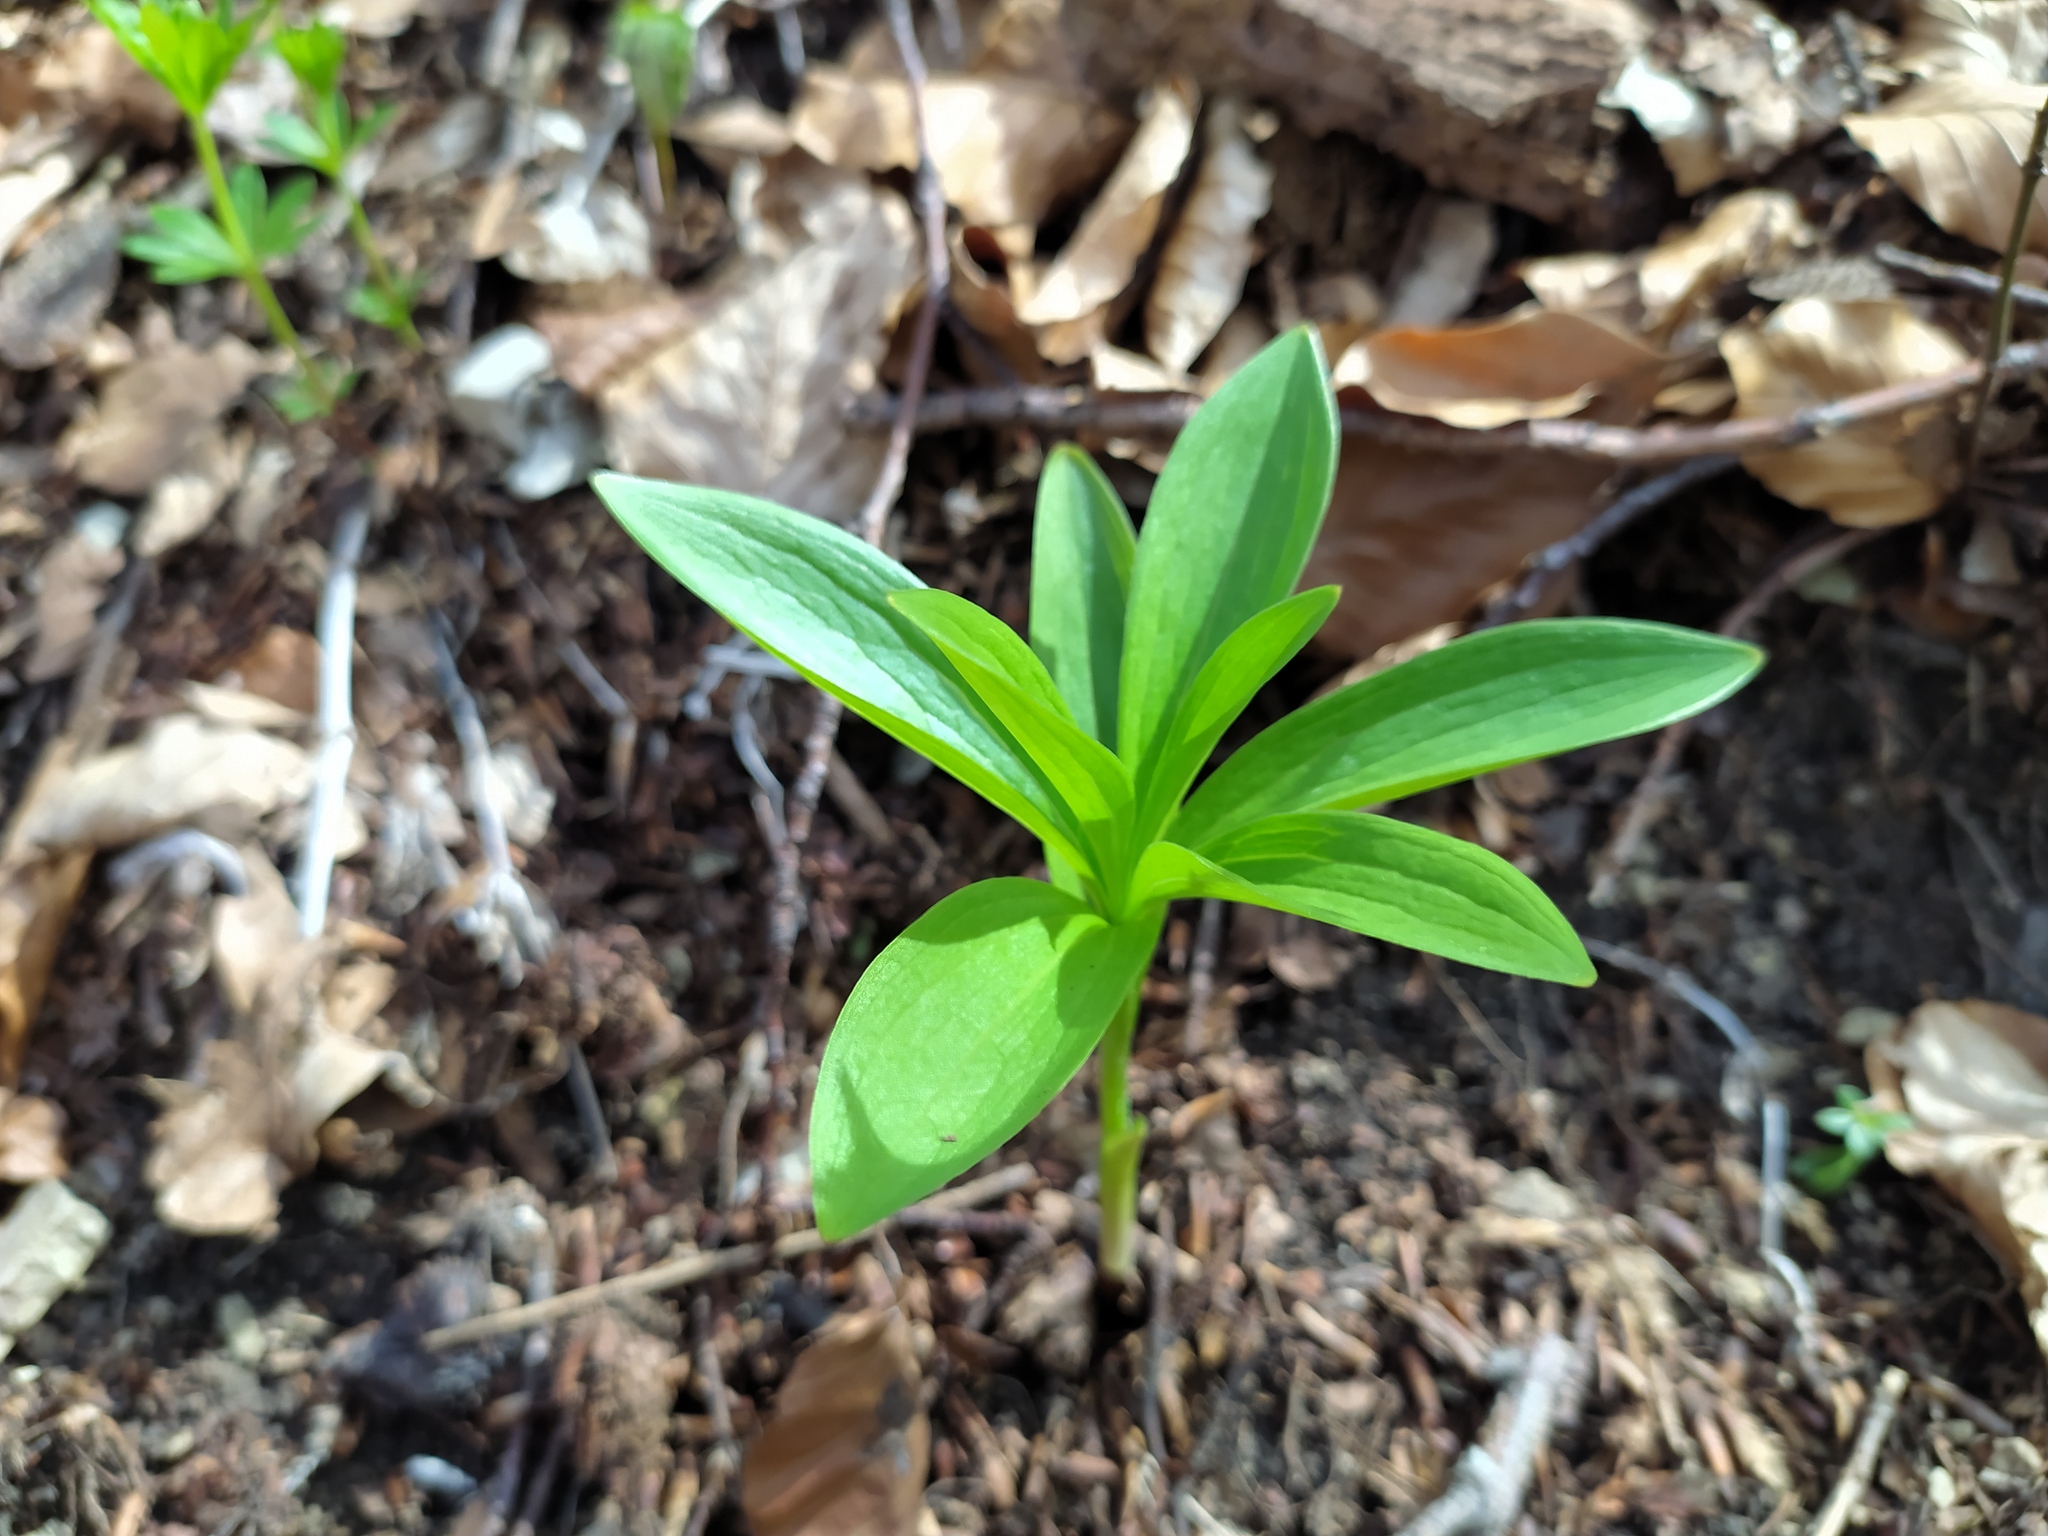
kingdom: Plantae
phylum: Tracheophyta
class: Liliopsida
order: Liliales
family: Liliaceae
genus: Lilium
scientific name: Lilium martagon
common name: Martagon lily
